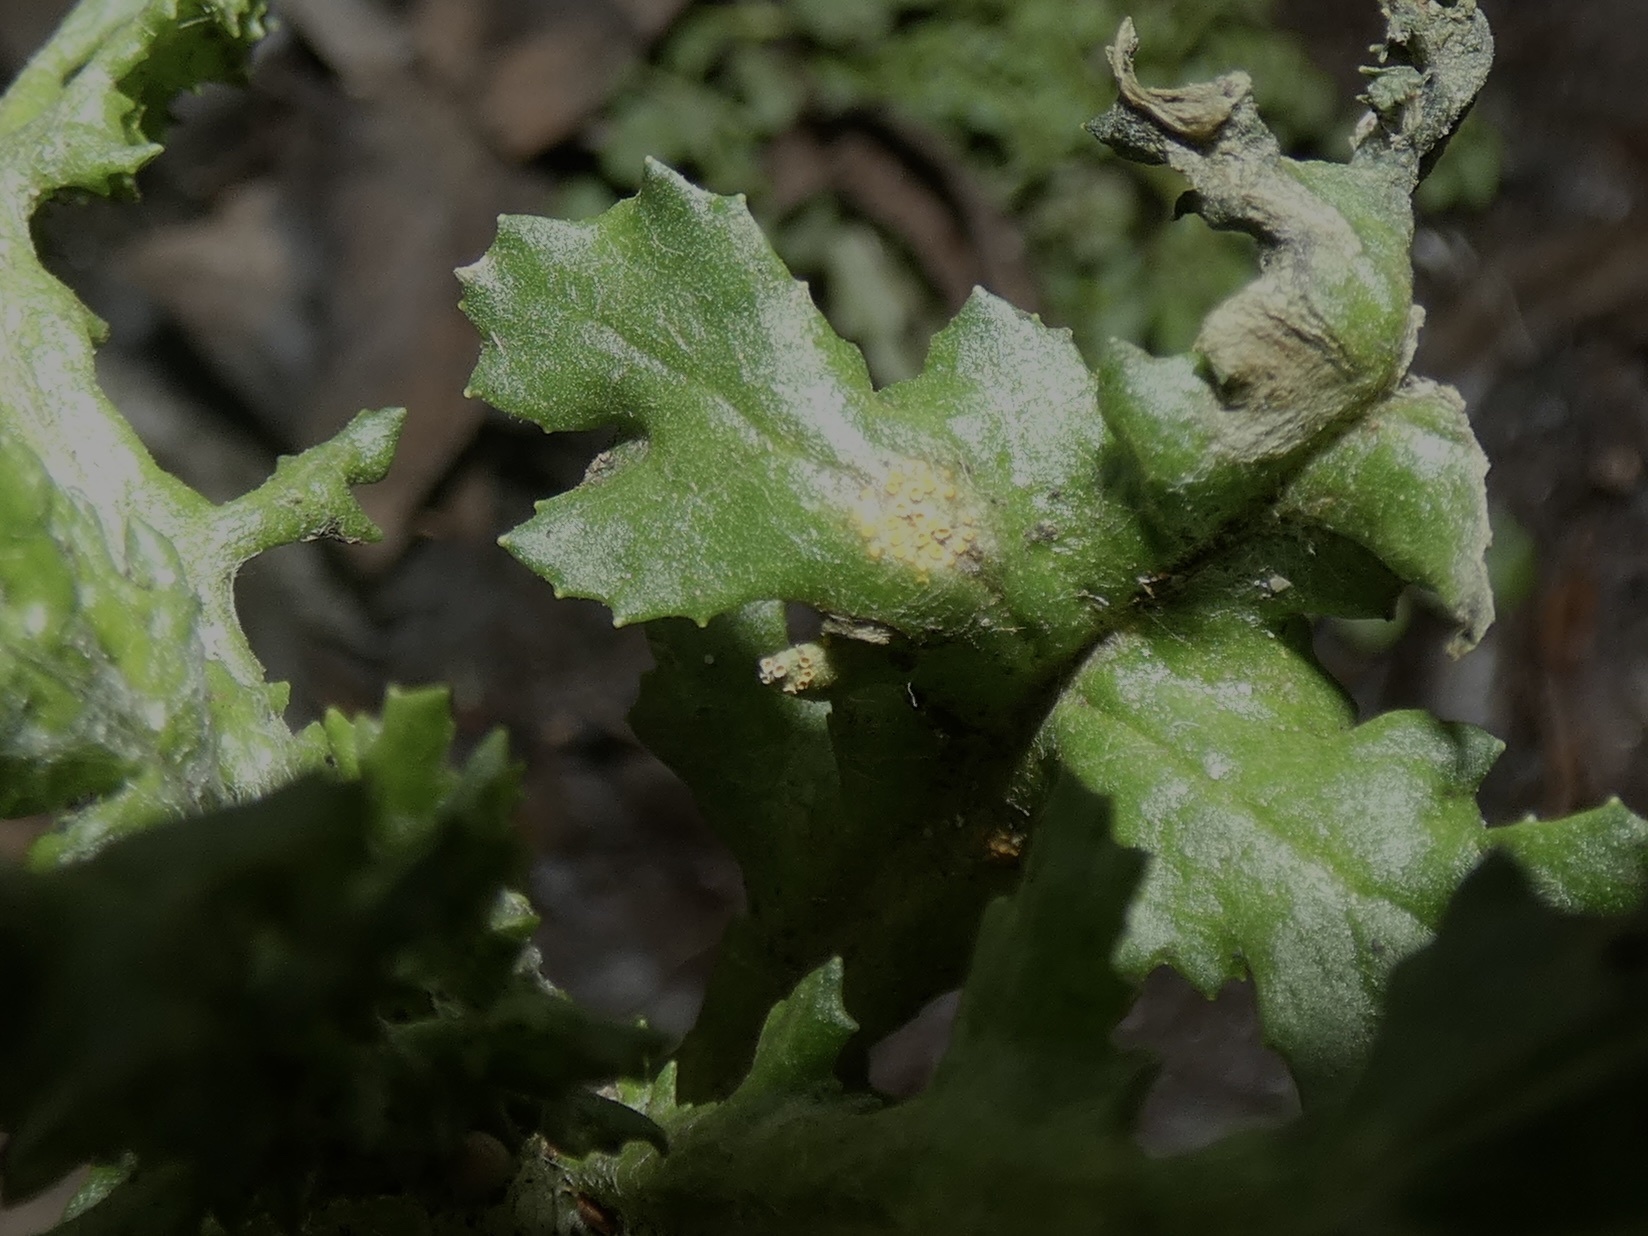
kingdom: Fungi
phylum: Basidiomycota
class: Pucciniomycetes
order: Pucciniales
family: Pucciniaceae
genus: Puccinia
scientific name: Puccinia lagenophorae
